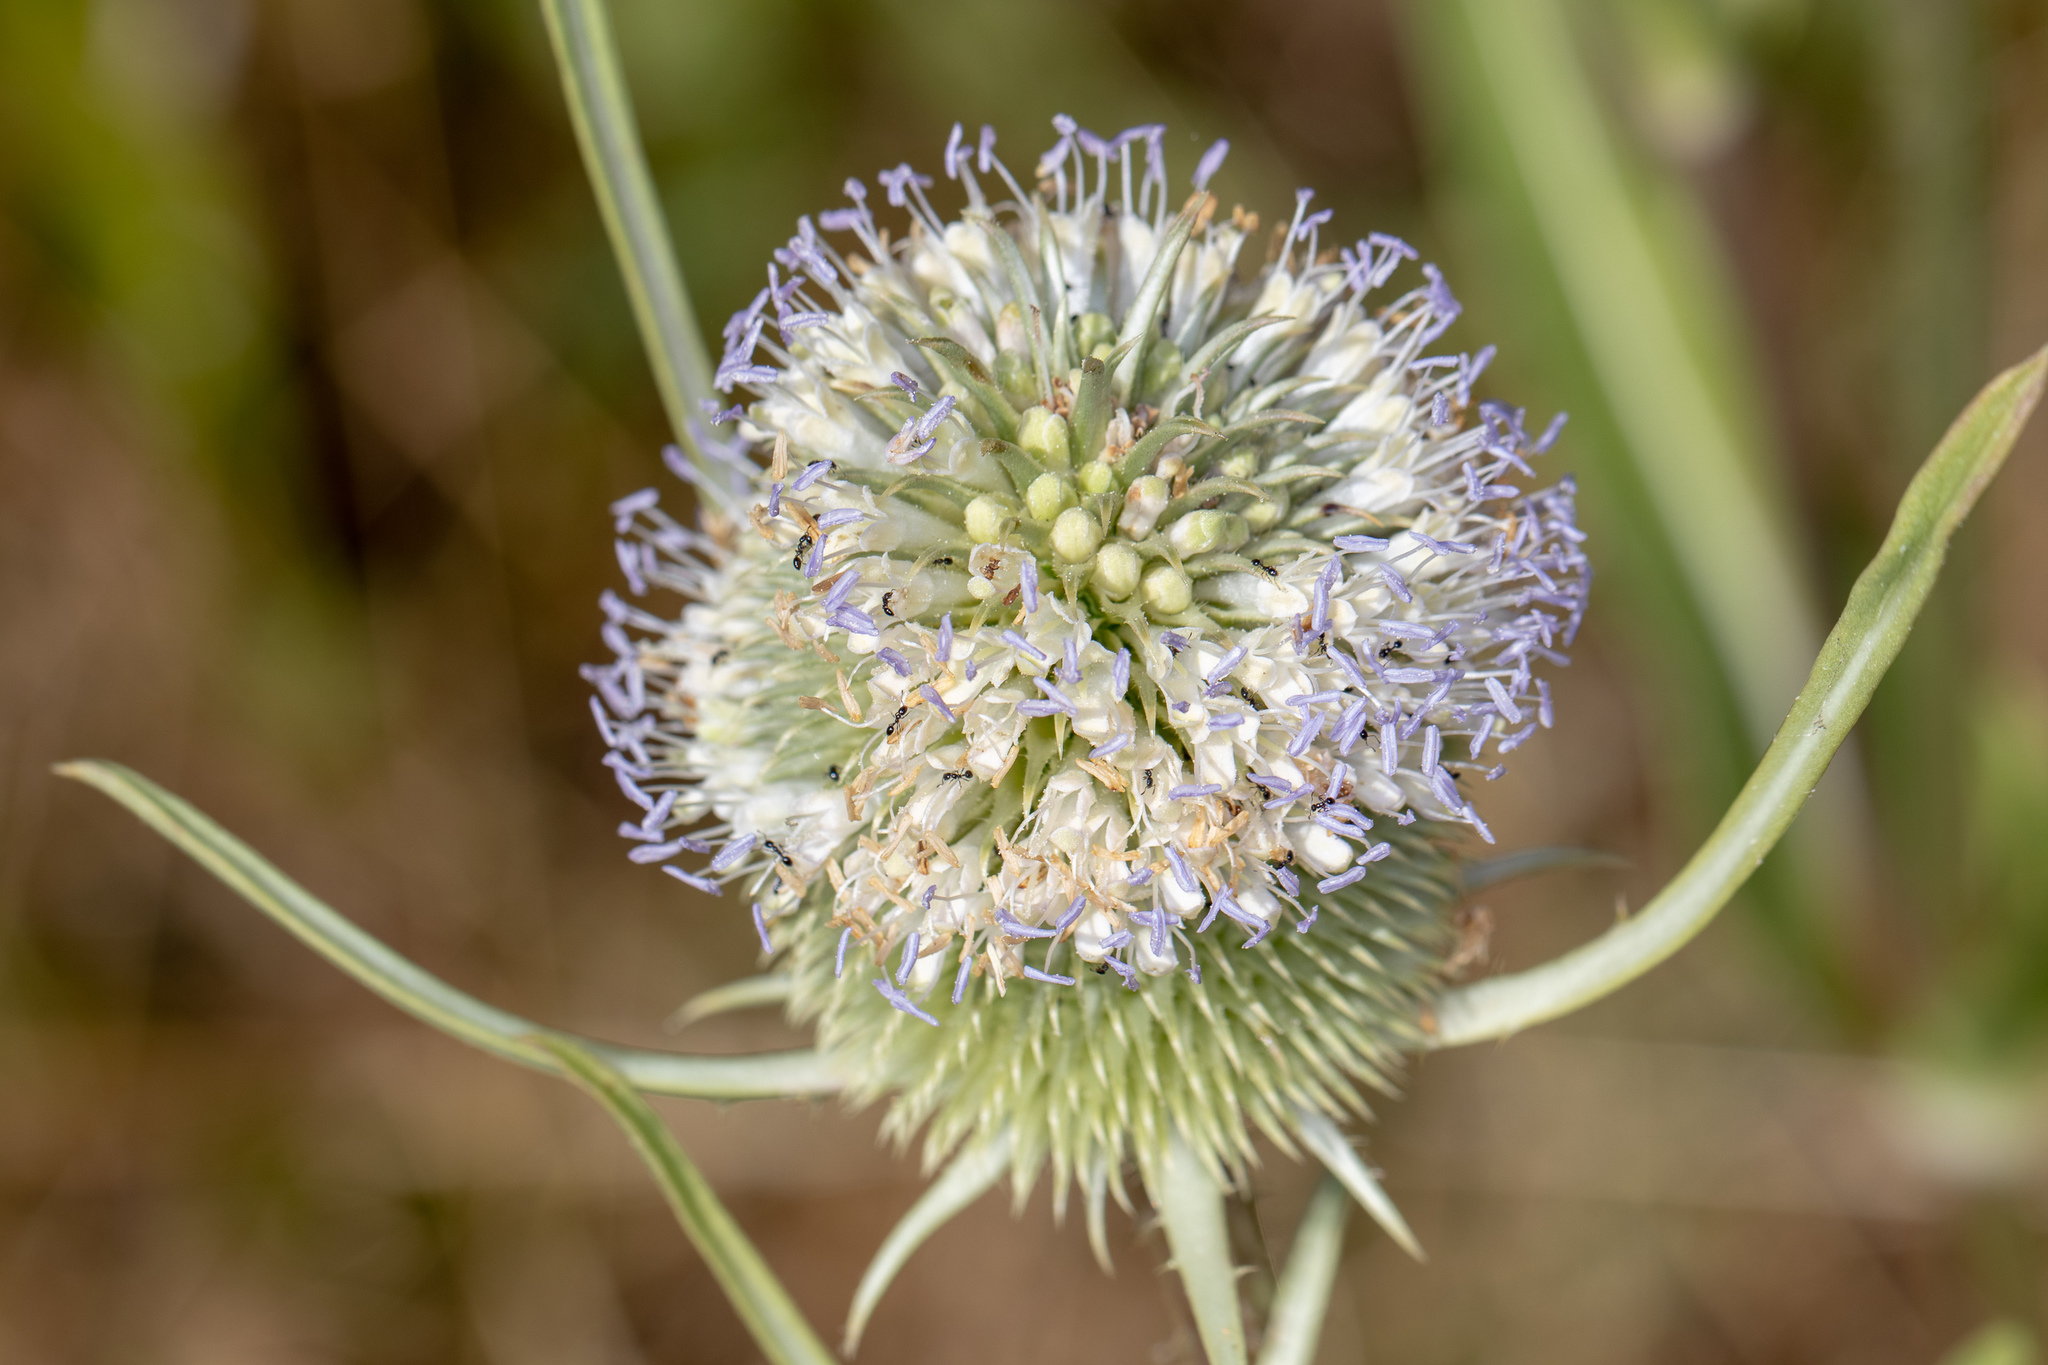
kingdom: Plantae
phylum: Tracheophyta
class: Magnoliopsida
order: Dipsacales
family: Caprifoliaceae
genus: Dipsacus
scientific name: Dipsacus sativus
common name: Fuller's teasel
